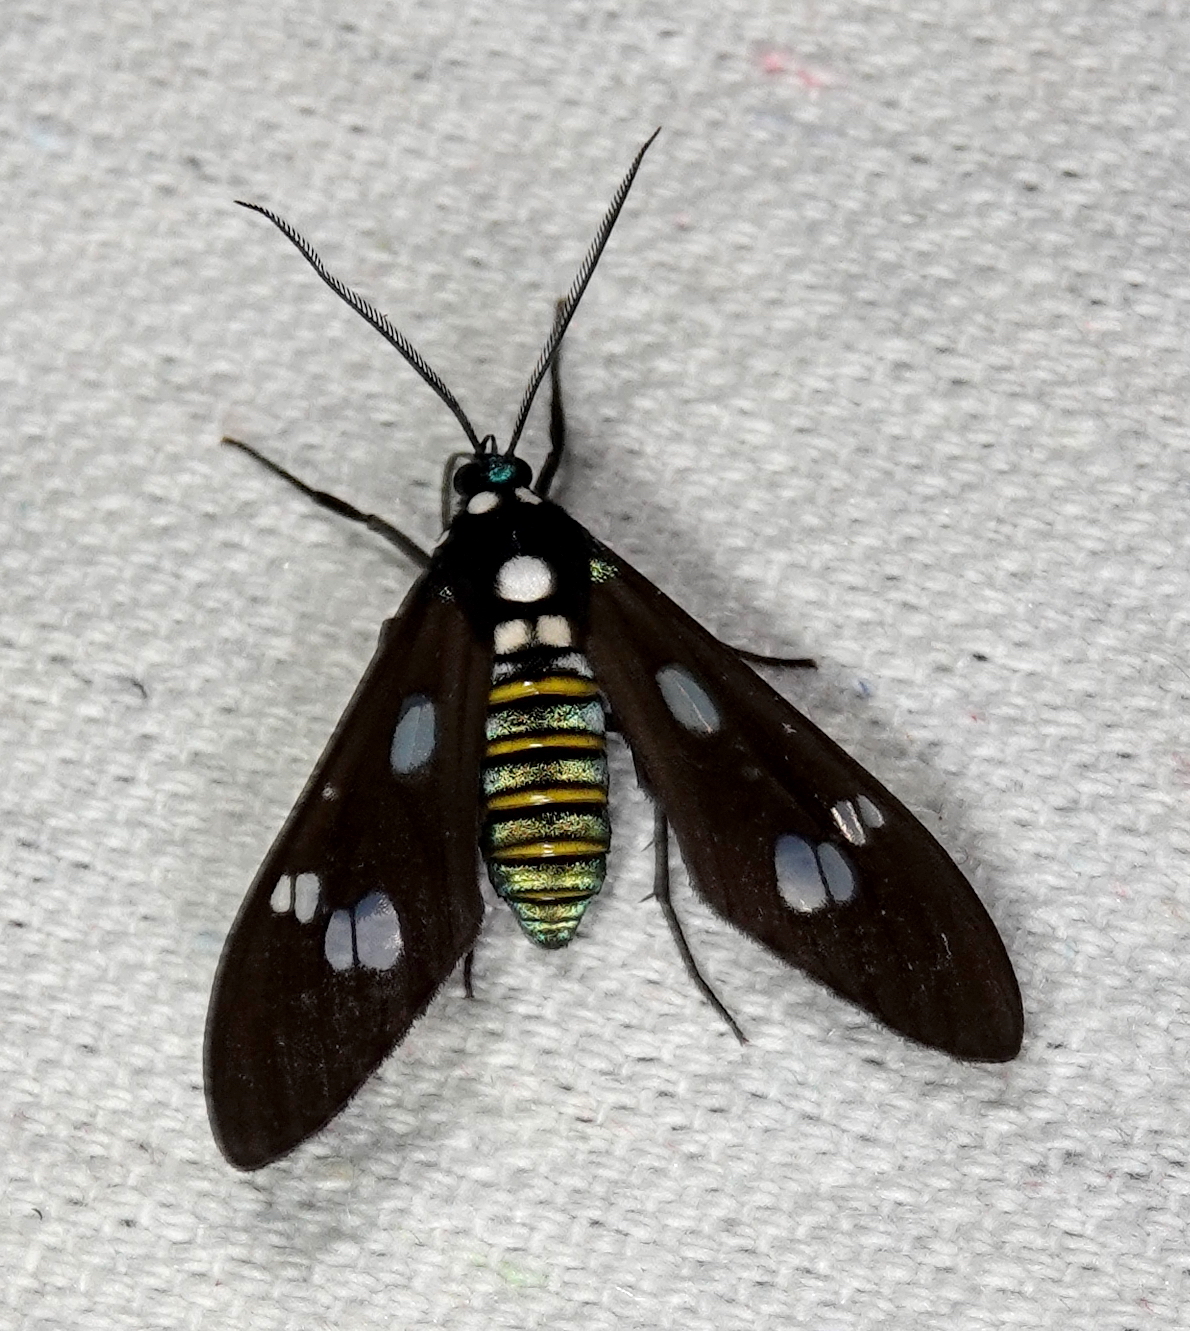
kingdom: Animalia
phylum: Arthropoda
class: Insecta
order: Lepidoptera
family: Erebidae
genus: Phaio
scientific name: Phaio acquiguttata
